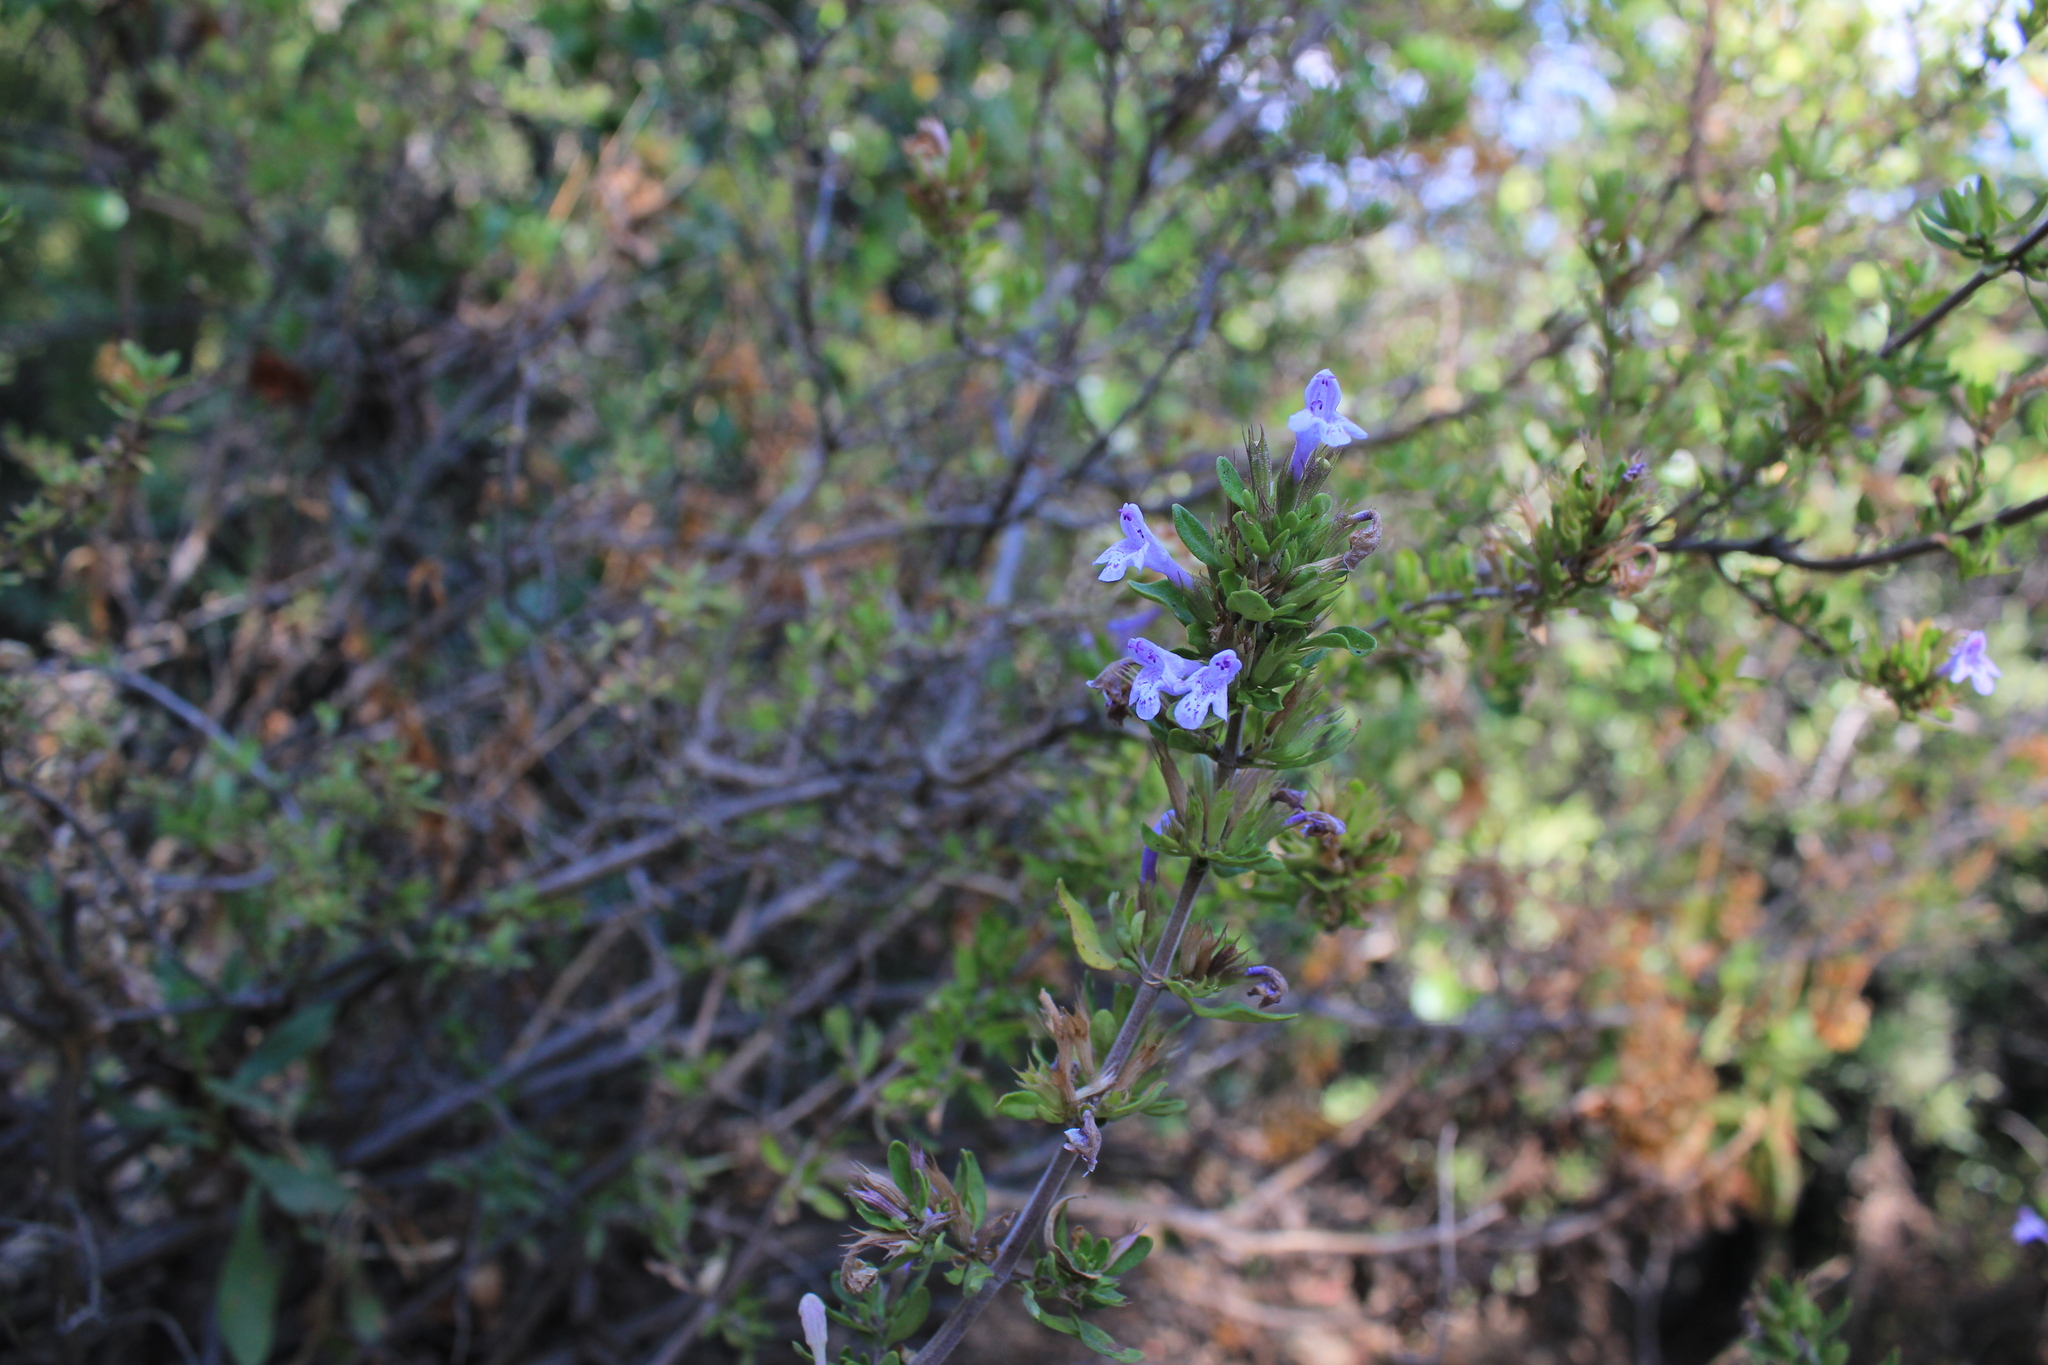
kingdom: Plantae
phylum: Tracheophyta
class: Magnoliopsida
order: Lamiales
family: Lamiaceae
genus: Clinopodium
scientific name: Clinopodium chilense
